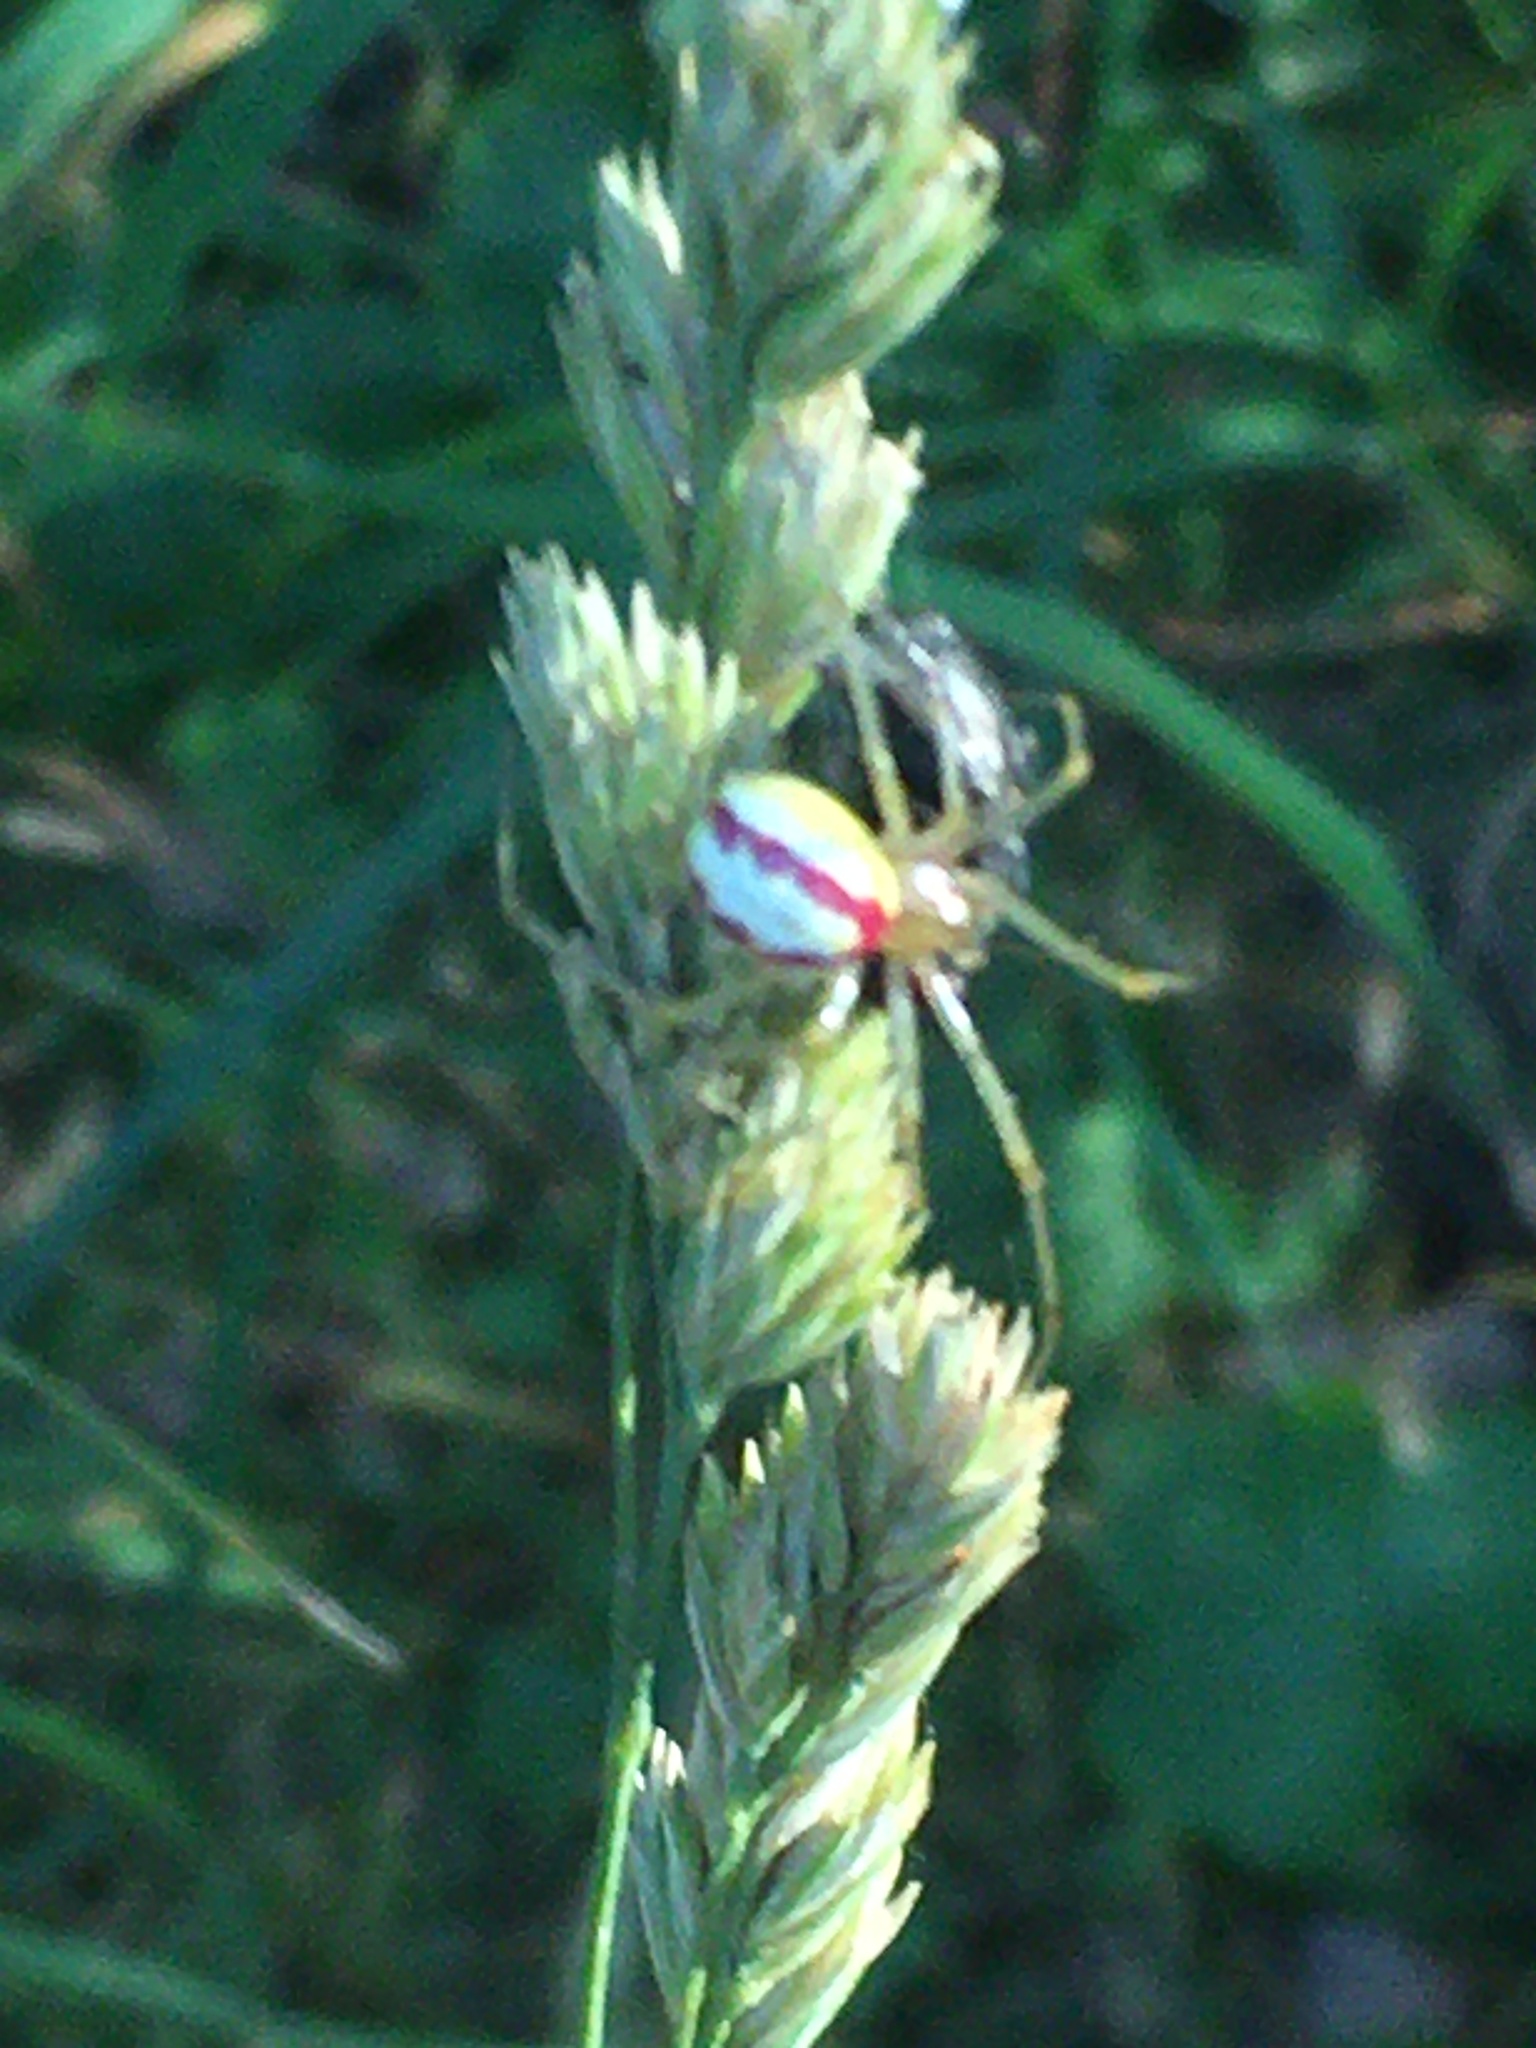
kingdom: Animalia
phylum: Arthropoda
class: Arachnida
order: Araneae
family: Theridiidae
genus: Enoplognatha
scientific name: Enoplognatha ovata
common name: Common candy-striped spider
